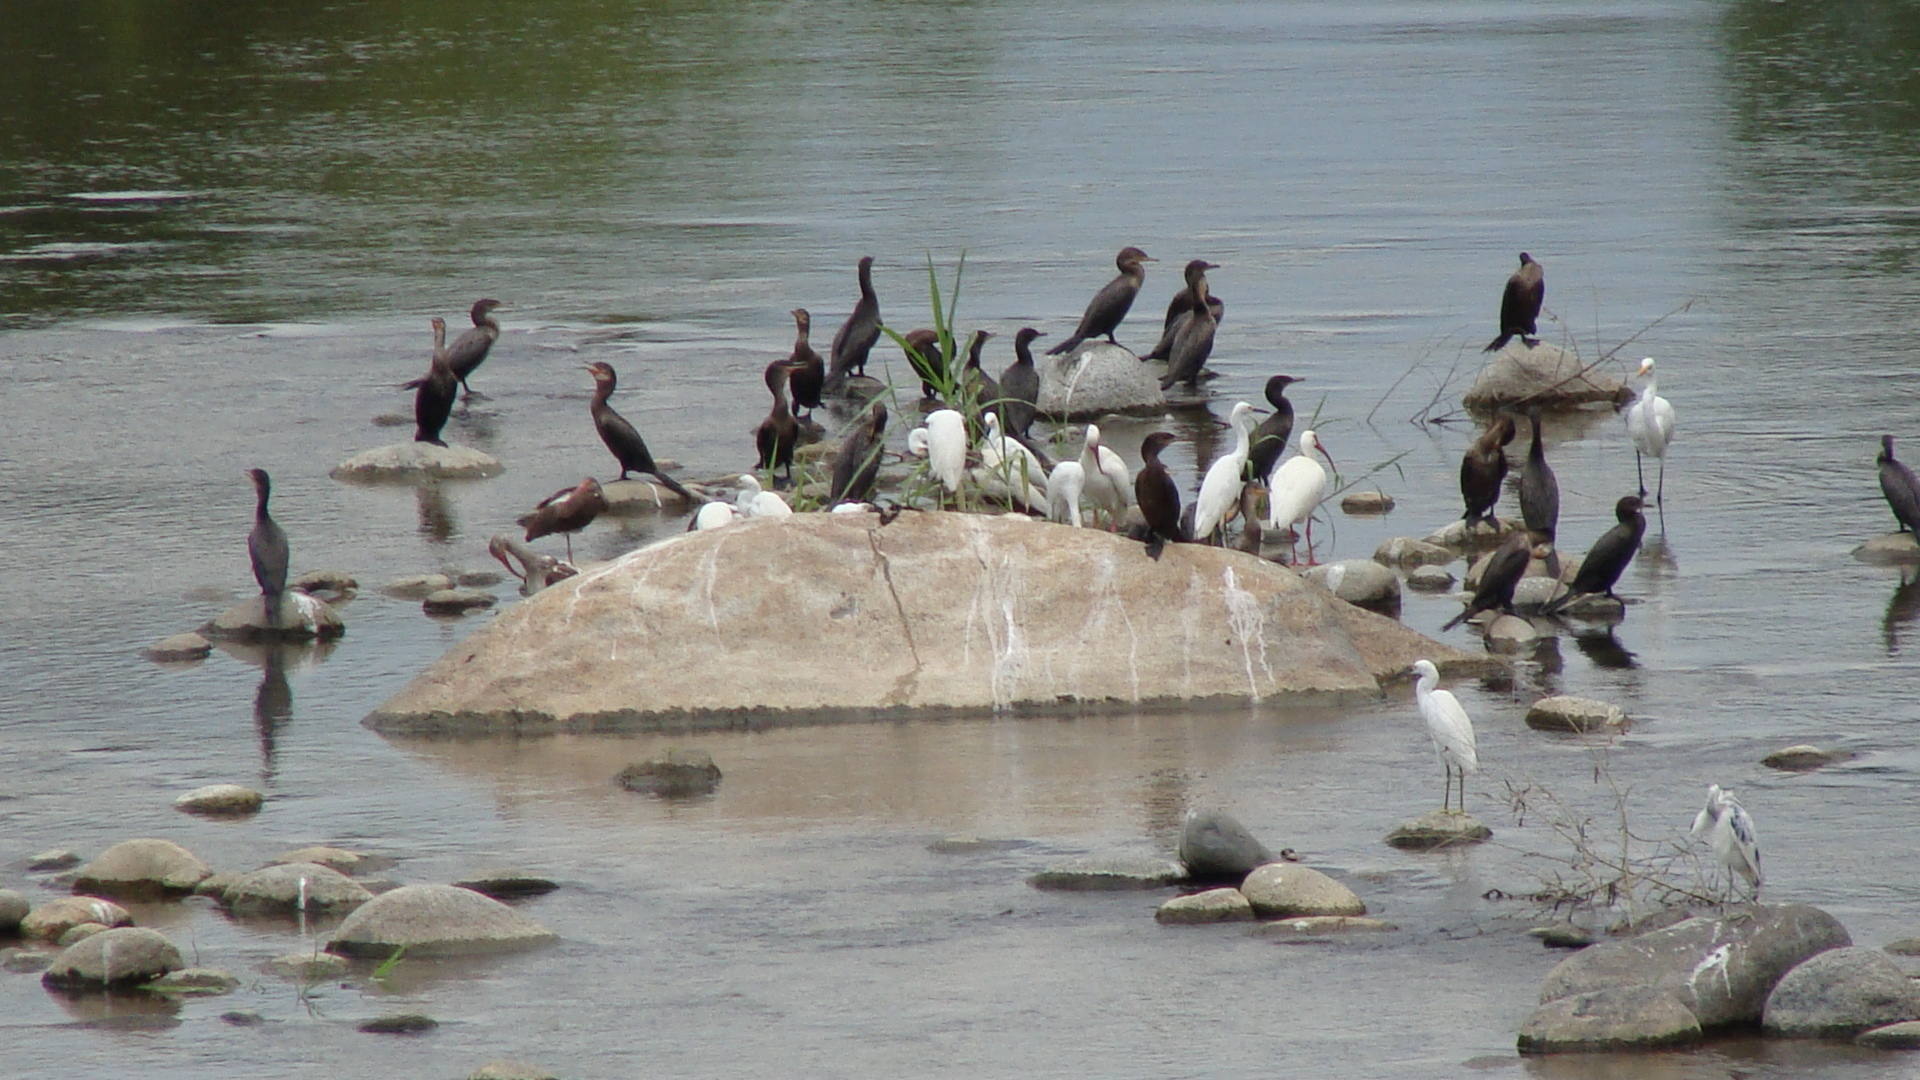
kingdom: Animalia
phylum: Chordata
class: Aves
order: Pelecaniformes
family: Threskiornithidae
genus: Eudocimus
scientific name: Eudocimus albus
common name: White ibis
